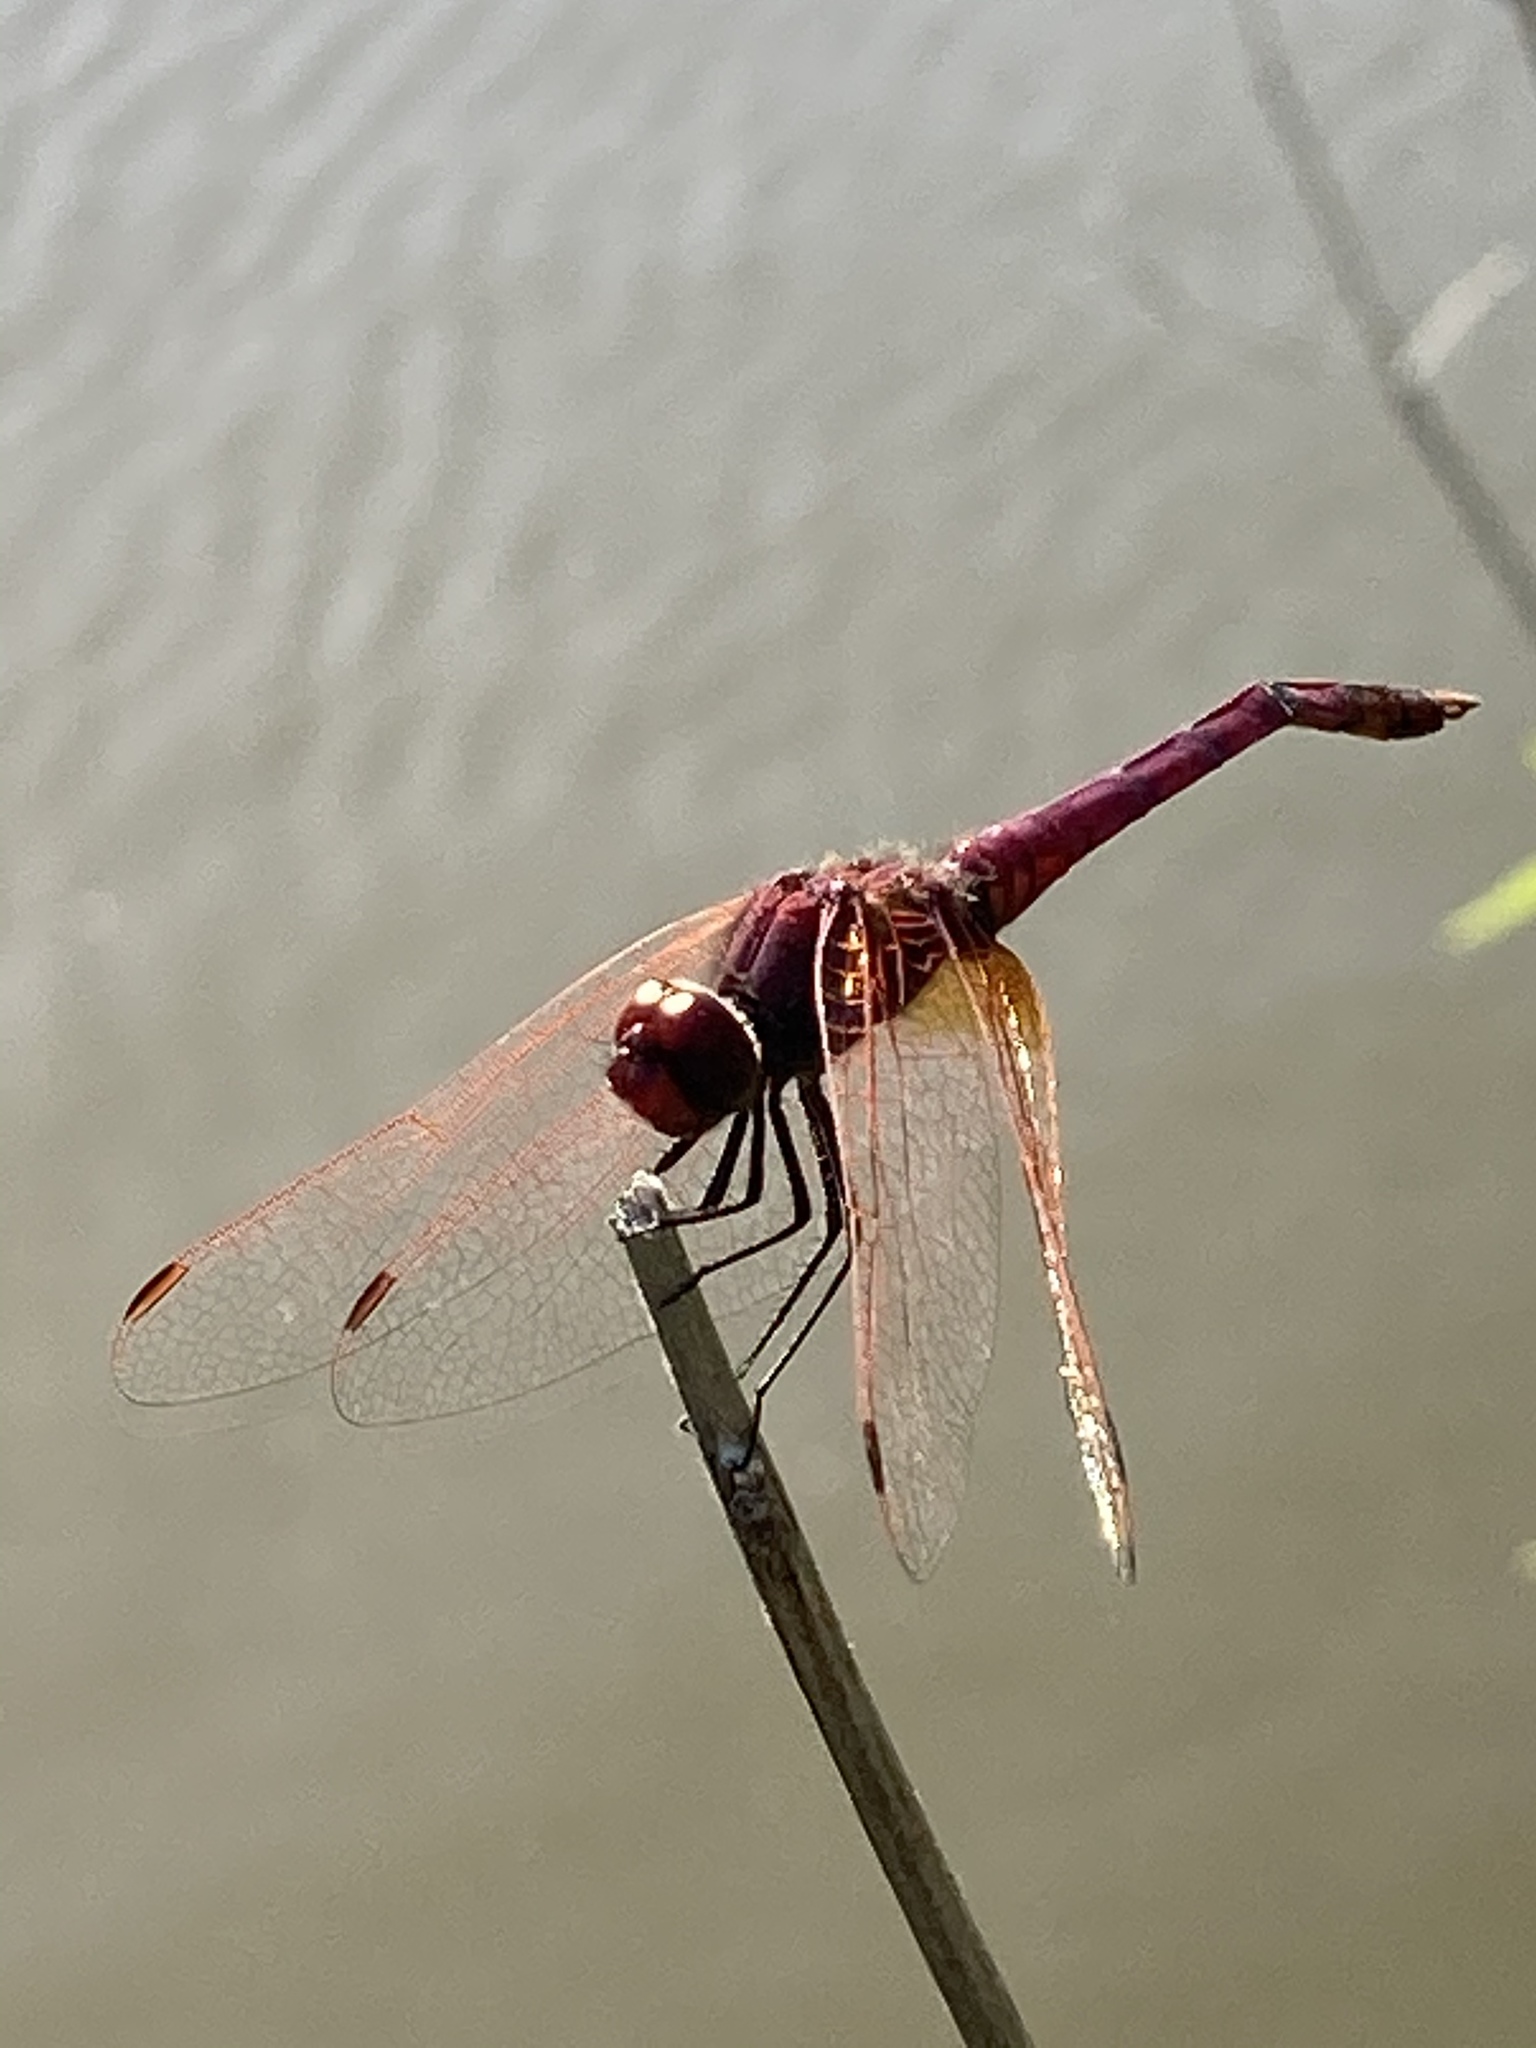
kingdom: Animalia
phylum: Arthropoda
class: Insecta
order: Odonata
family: Libellulidae
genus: Trithemis
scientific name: Trithemis annulata
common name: Violet dropwing
